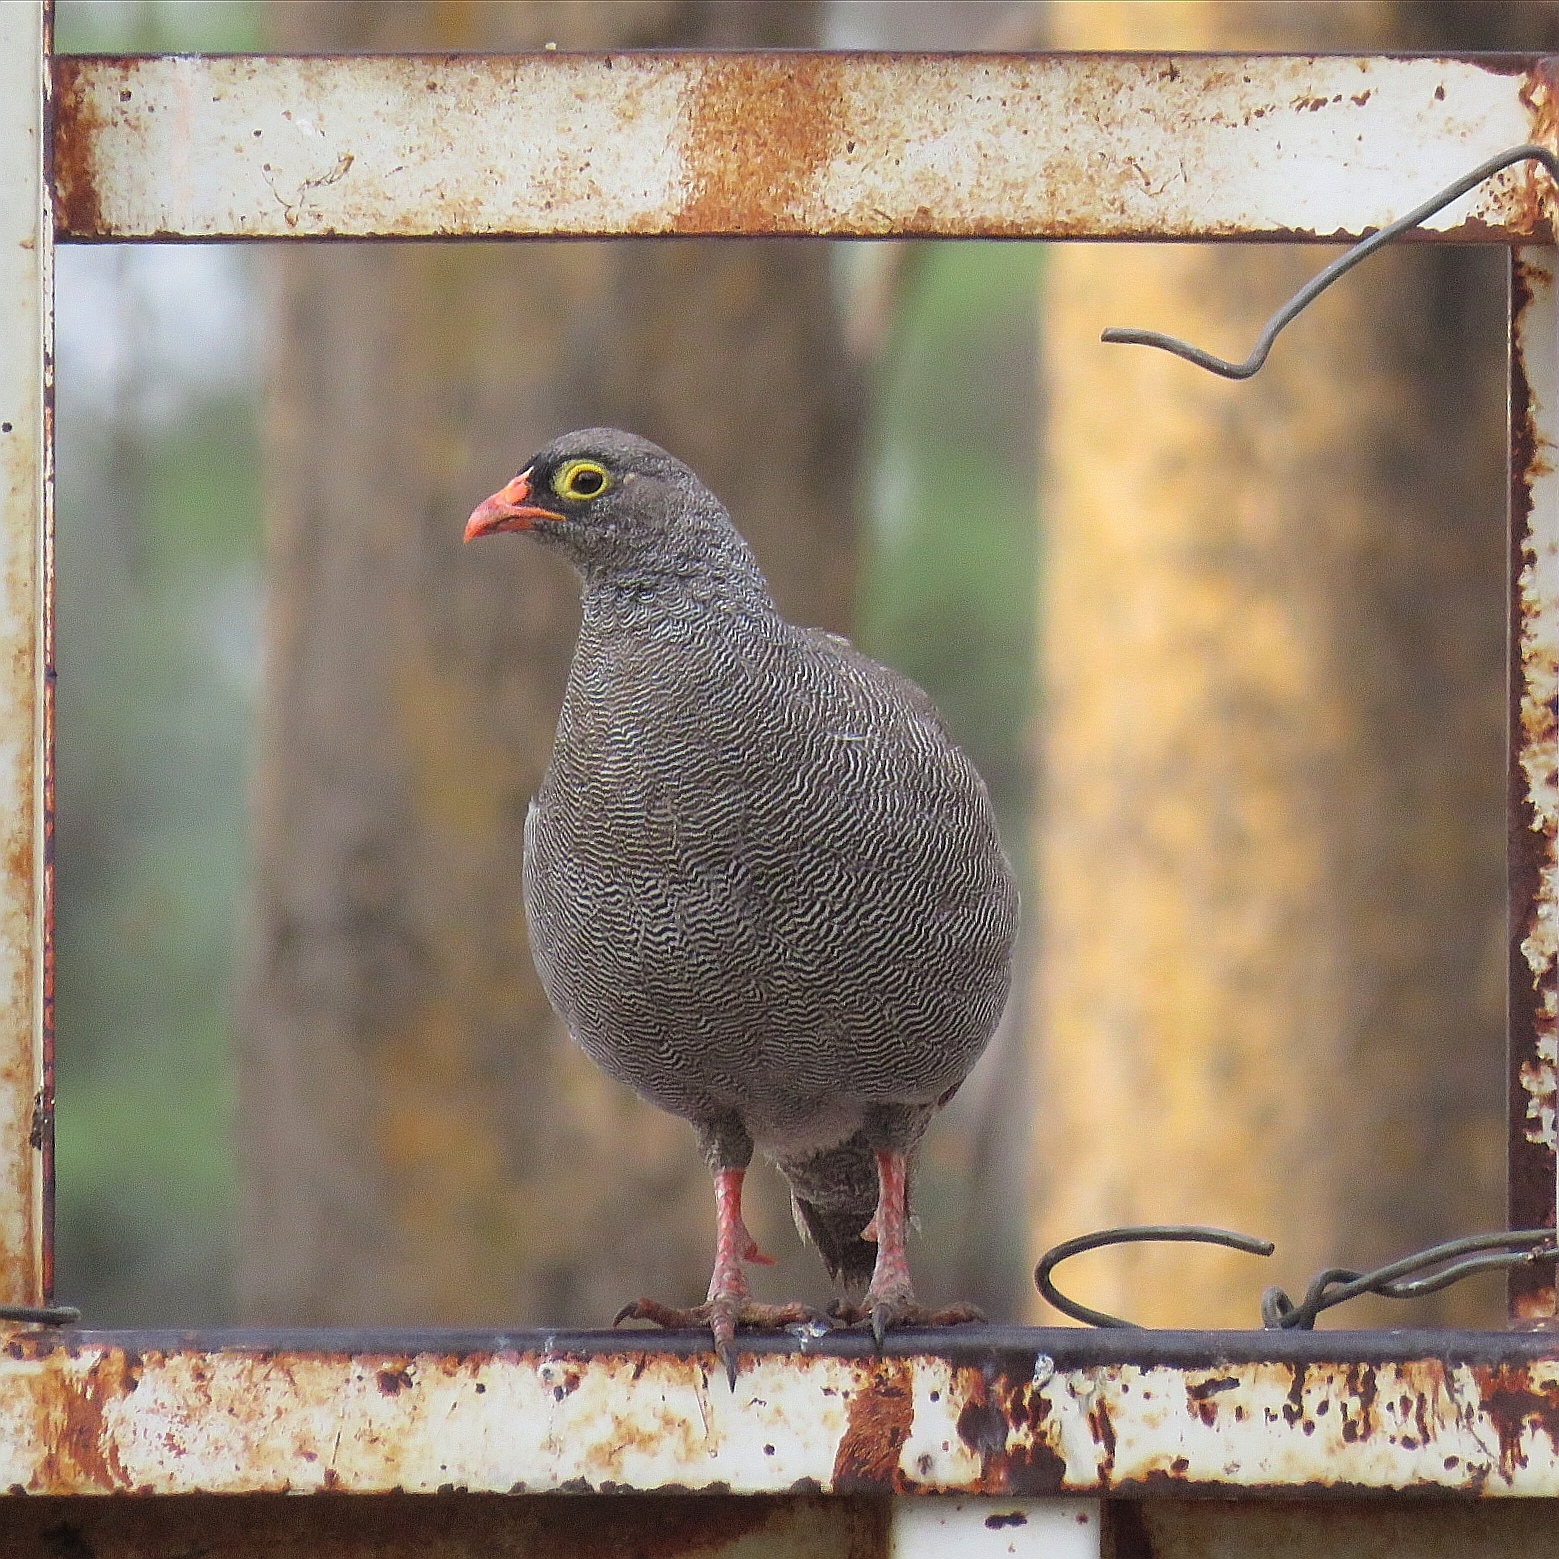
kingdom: Animalia
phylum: Chordata
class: Aves
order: Galliformes
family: Phasianidae
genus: Pternistis
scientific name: Pternistis adspersus
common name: Red-billed spurfowl
